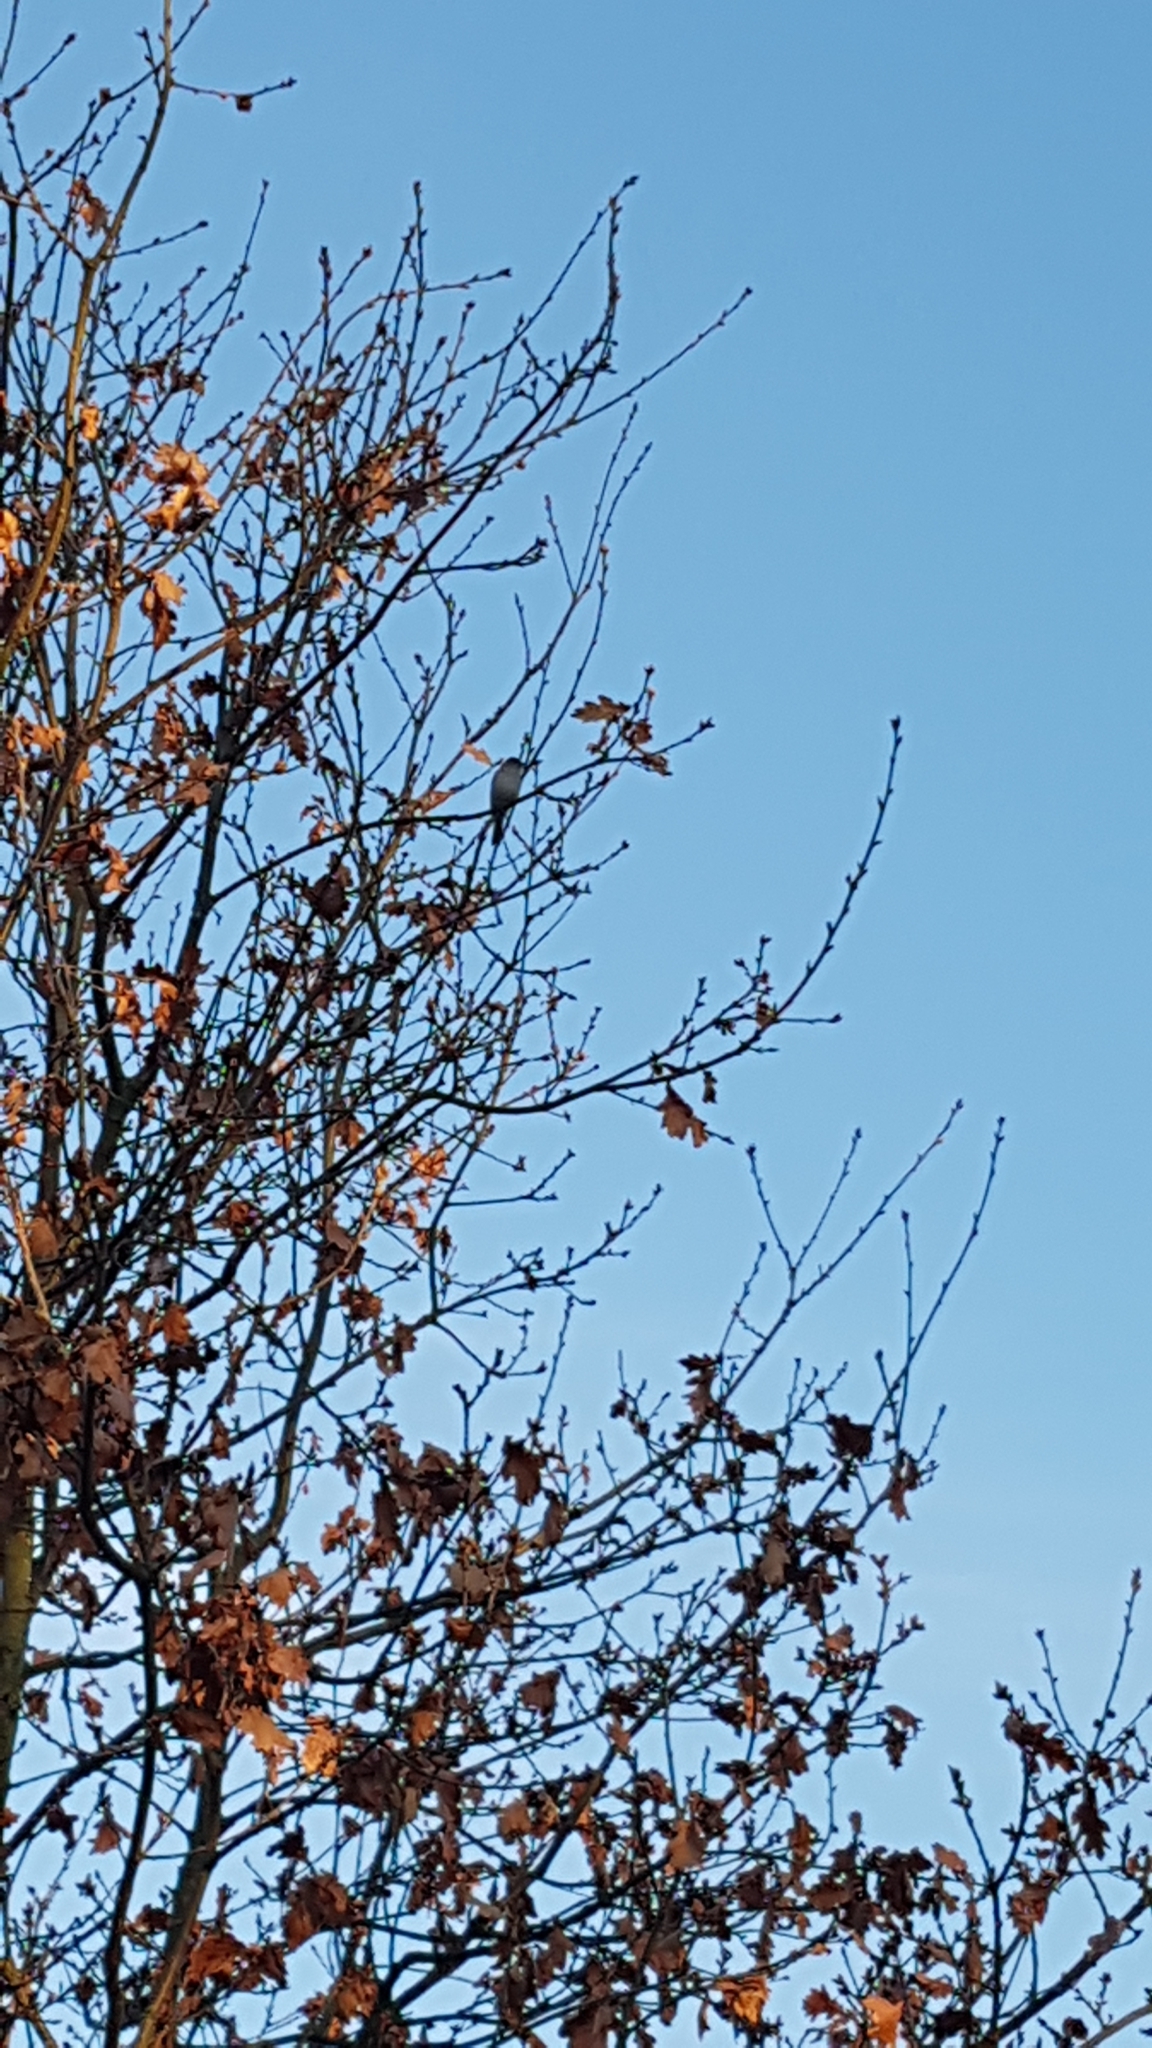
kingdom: Animalia
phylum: Chordata
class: Aves
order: Passeriformes
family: Sylviidae
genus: Sylvia
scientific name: Sylvia atricapilla
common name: Eurasian blackcap
